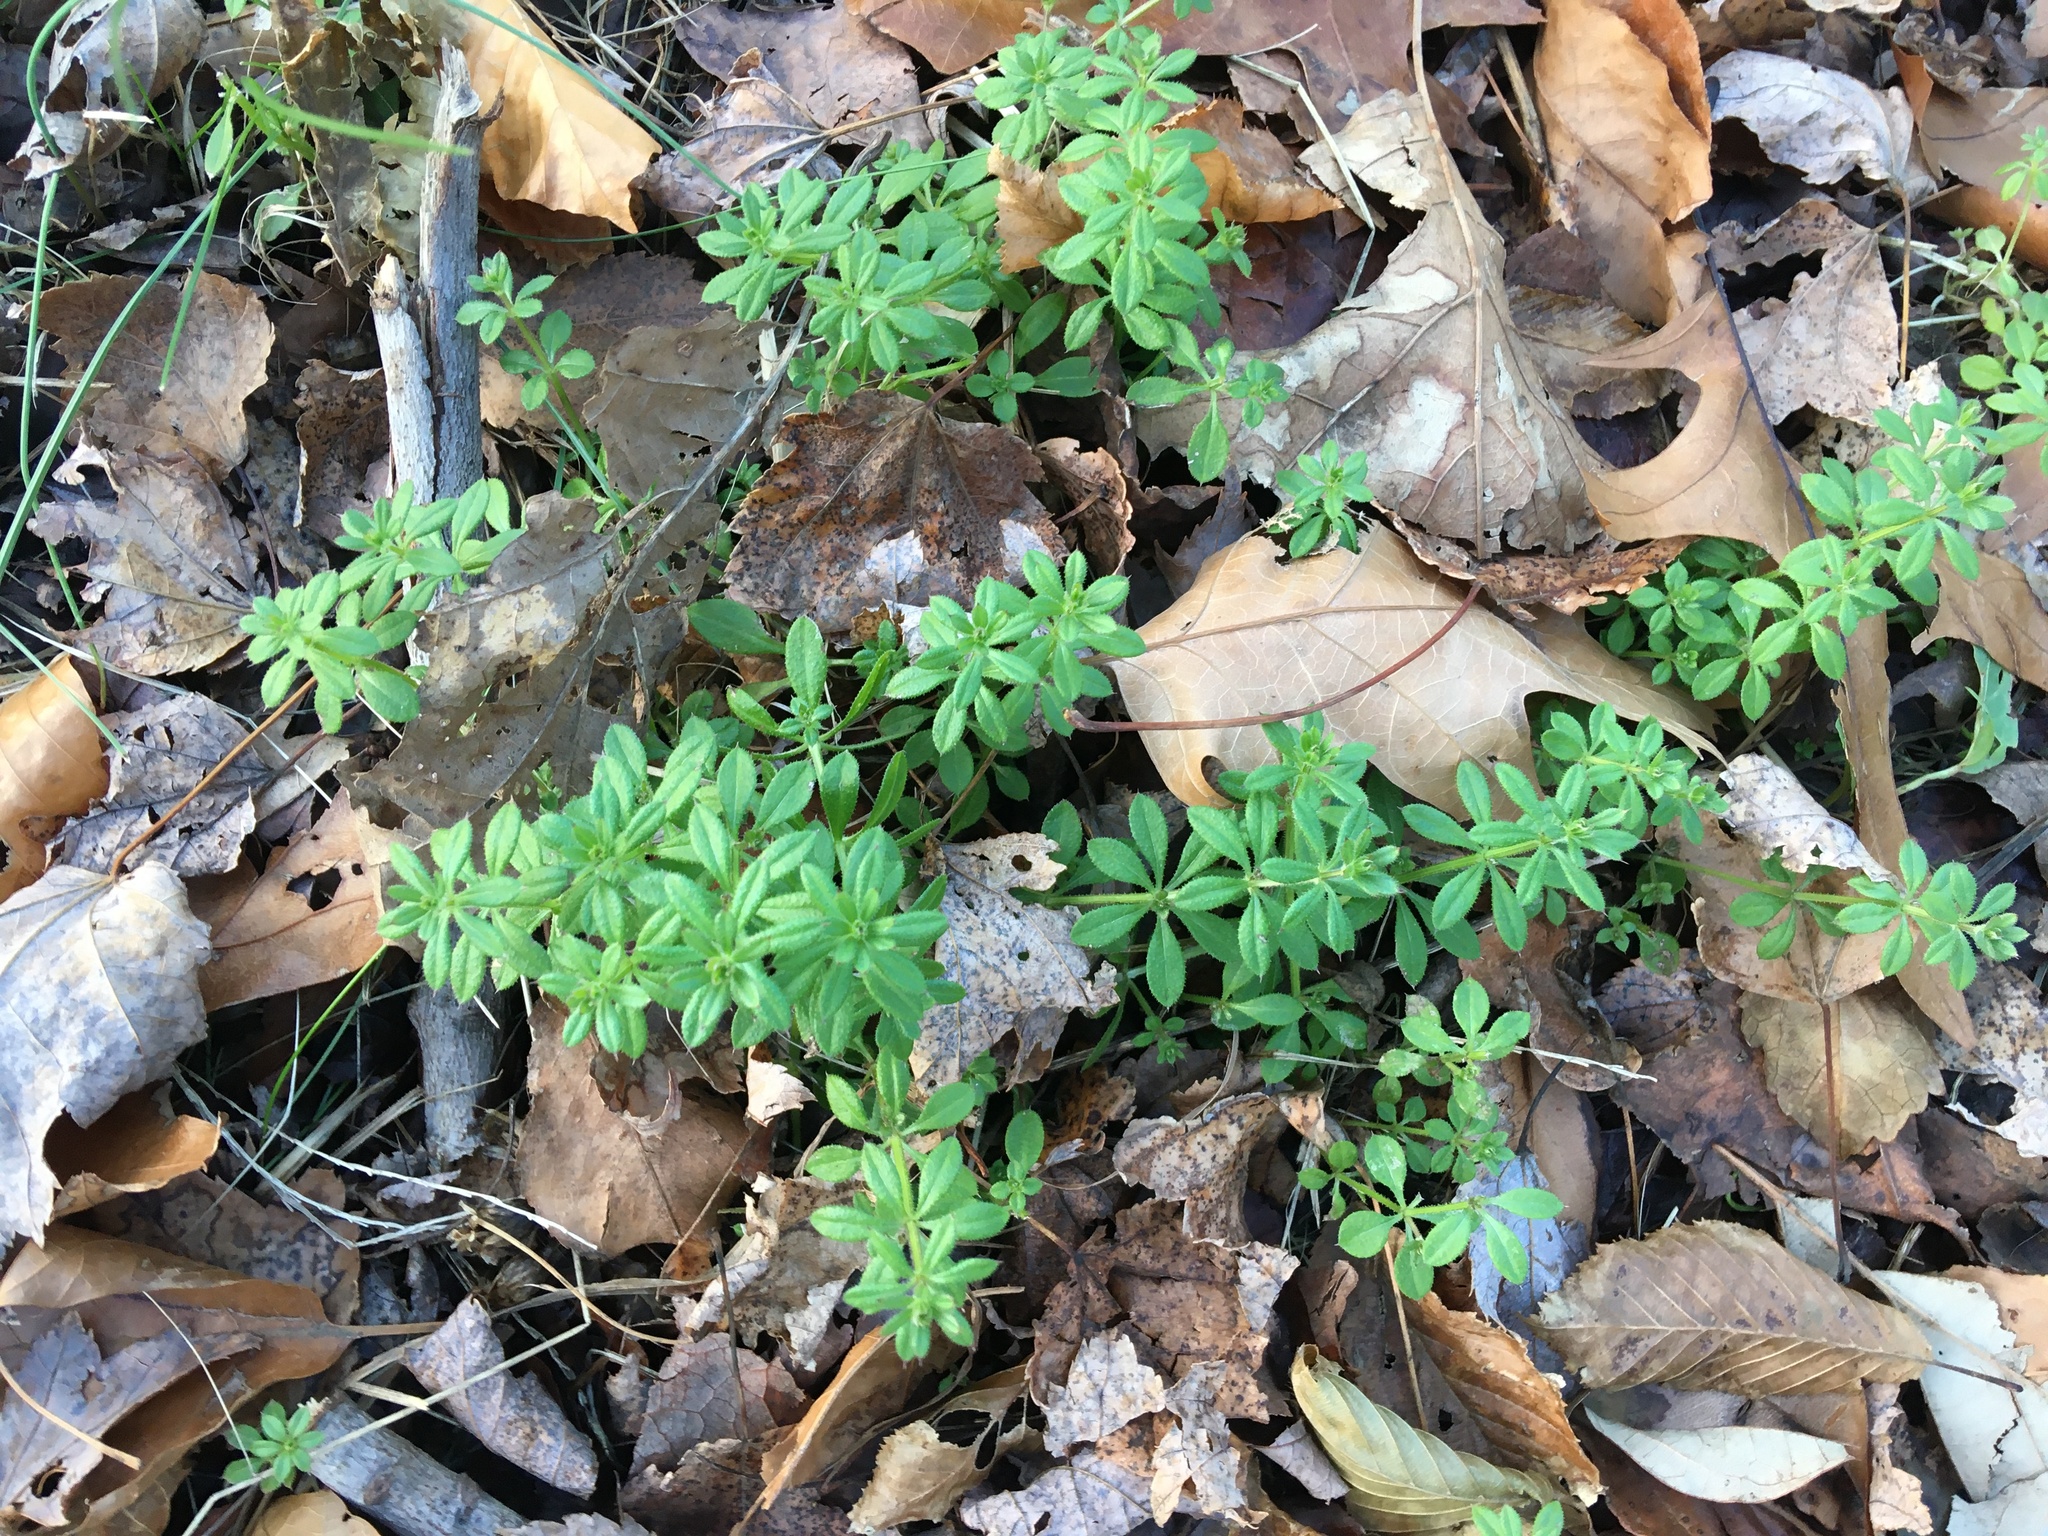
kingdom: Plantae
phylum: Tracheophyta
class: Magnoliopsida
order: Gentianales
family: Rubiaceae
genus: Galium
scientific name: Galium aparine
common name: Cleavers
